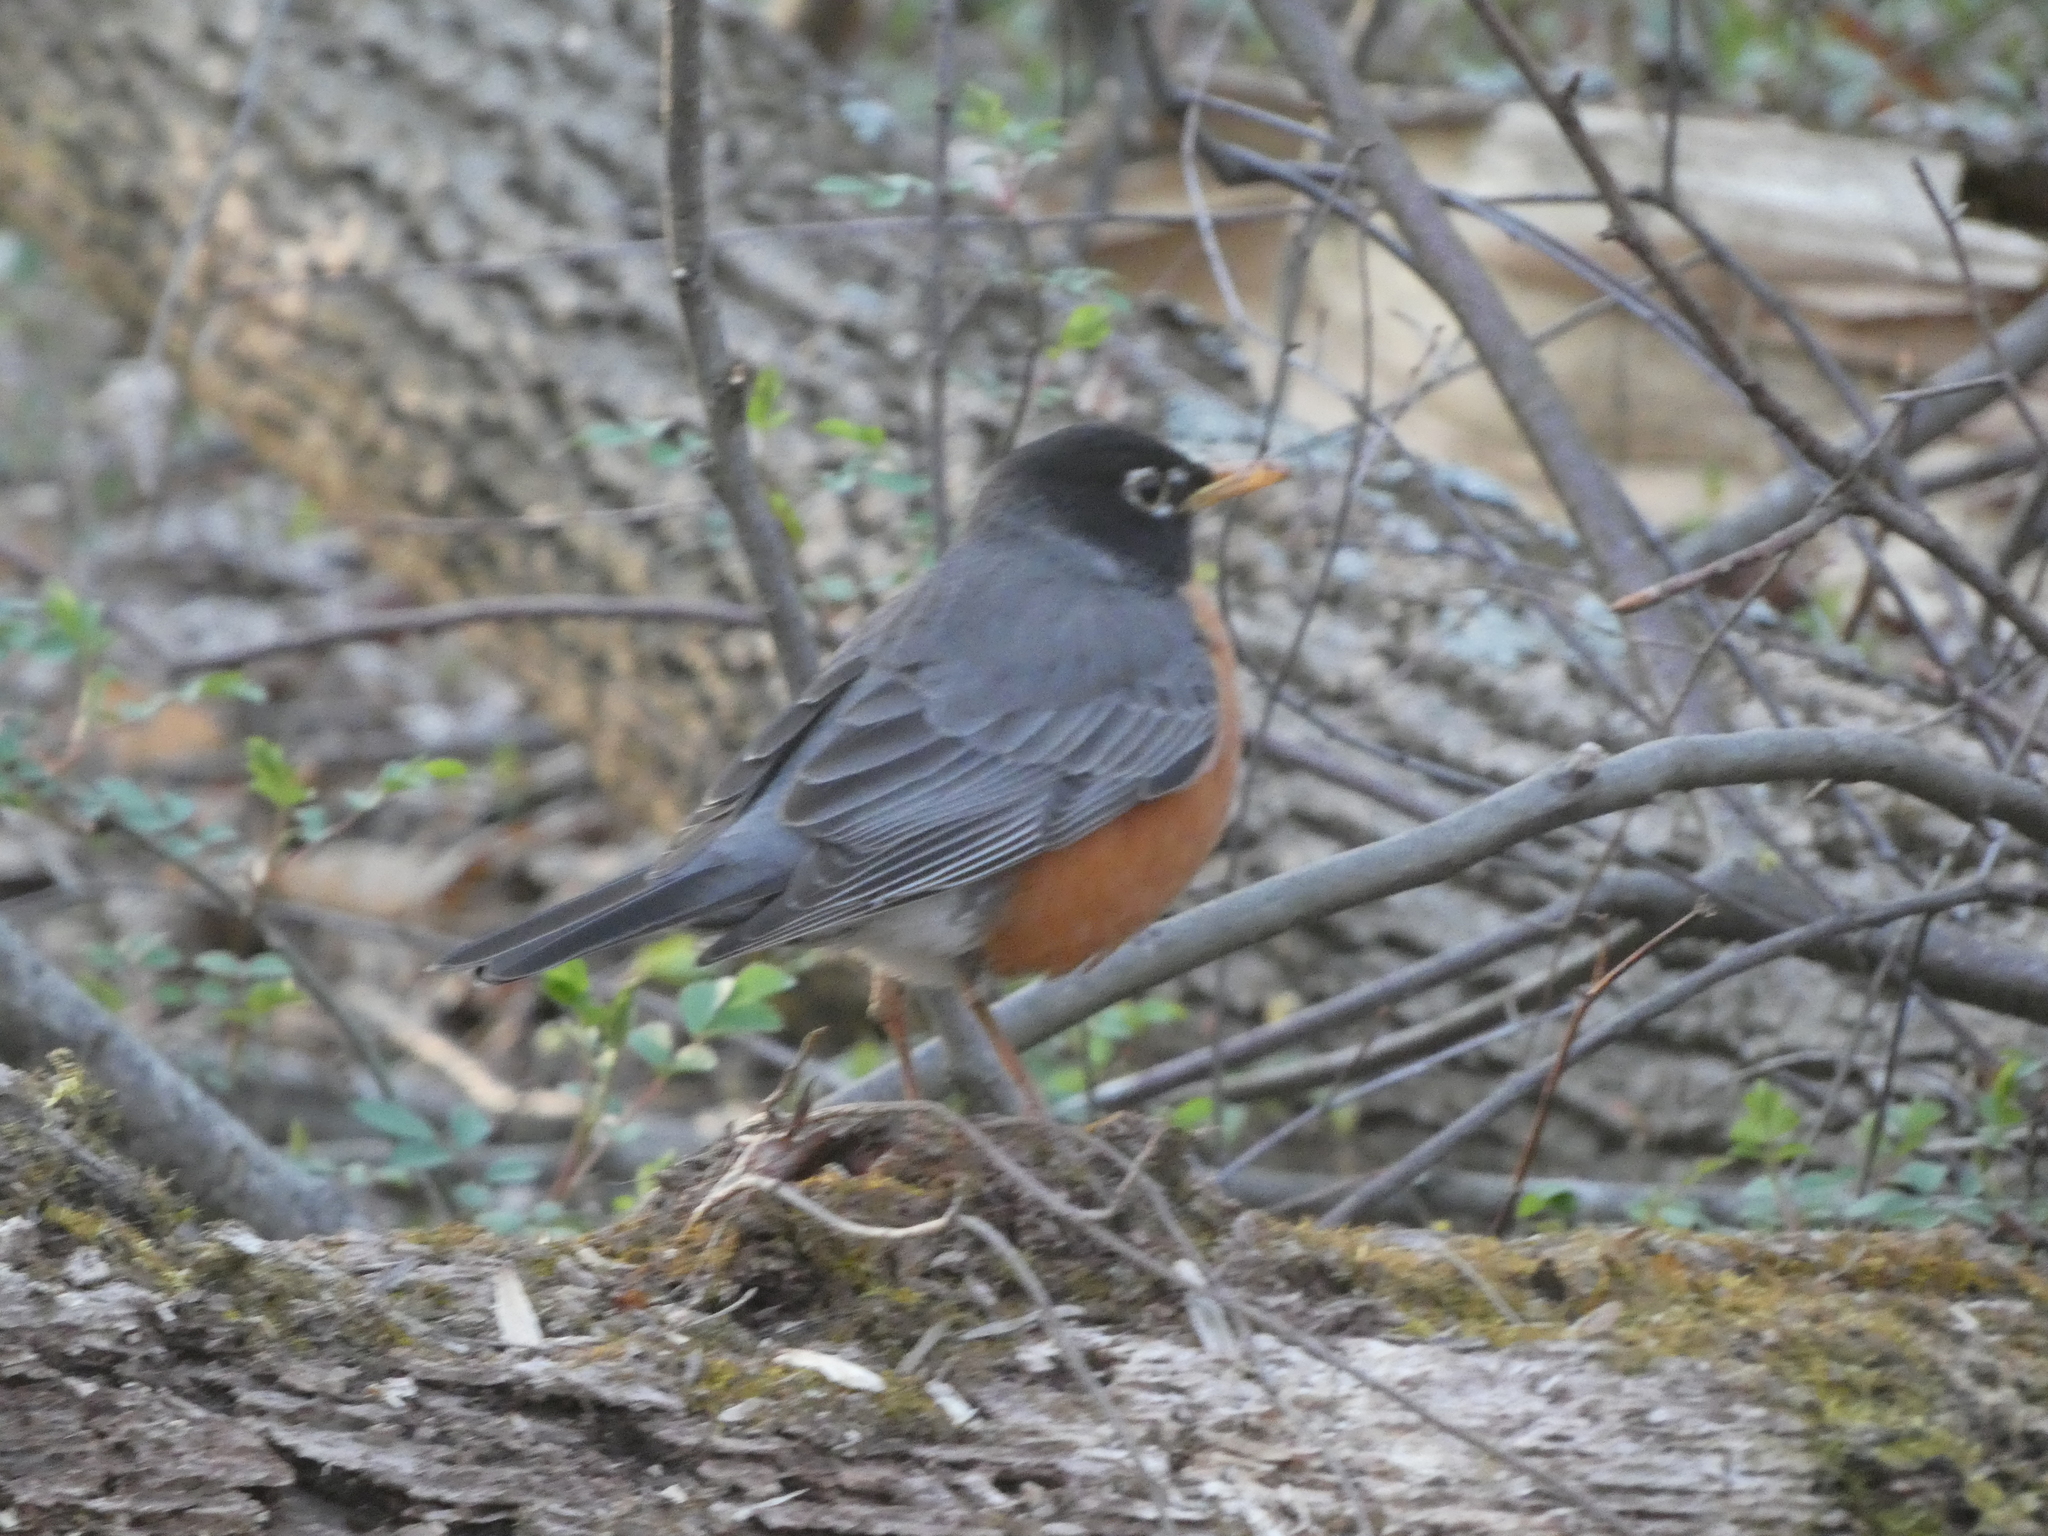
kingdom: Animalia
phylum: Chordata
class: Aves
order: Passeriformes
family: Turdidae
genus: Turdus
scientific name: Turdus migratorius
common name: American robin
